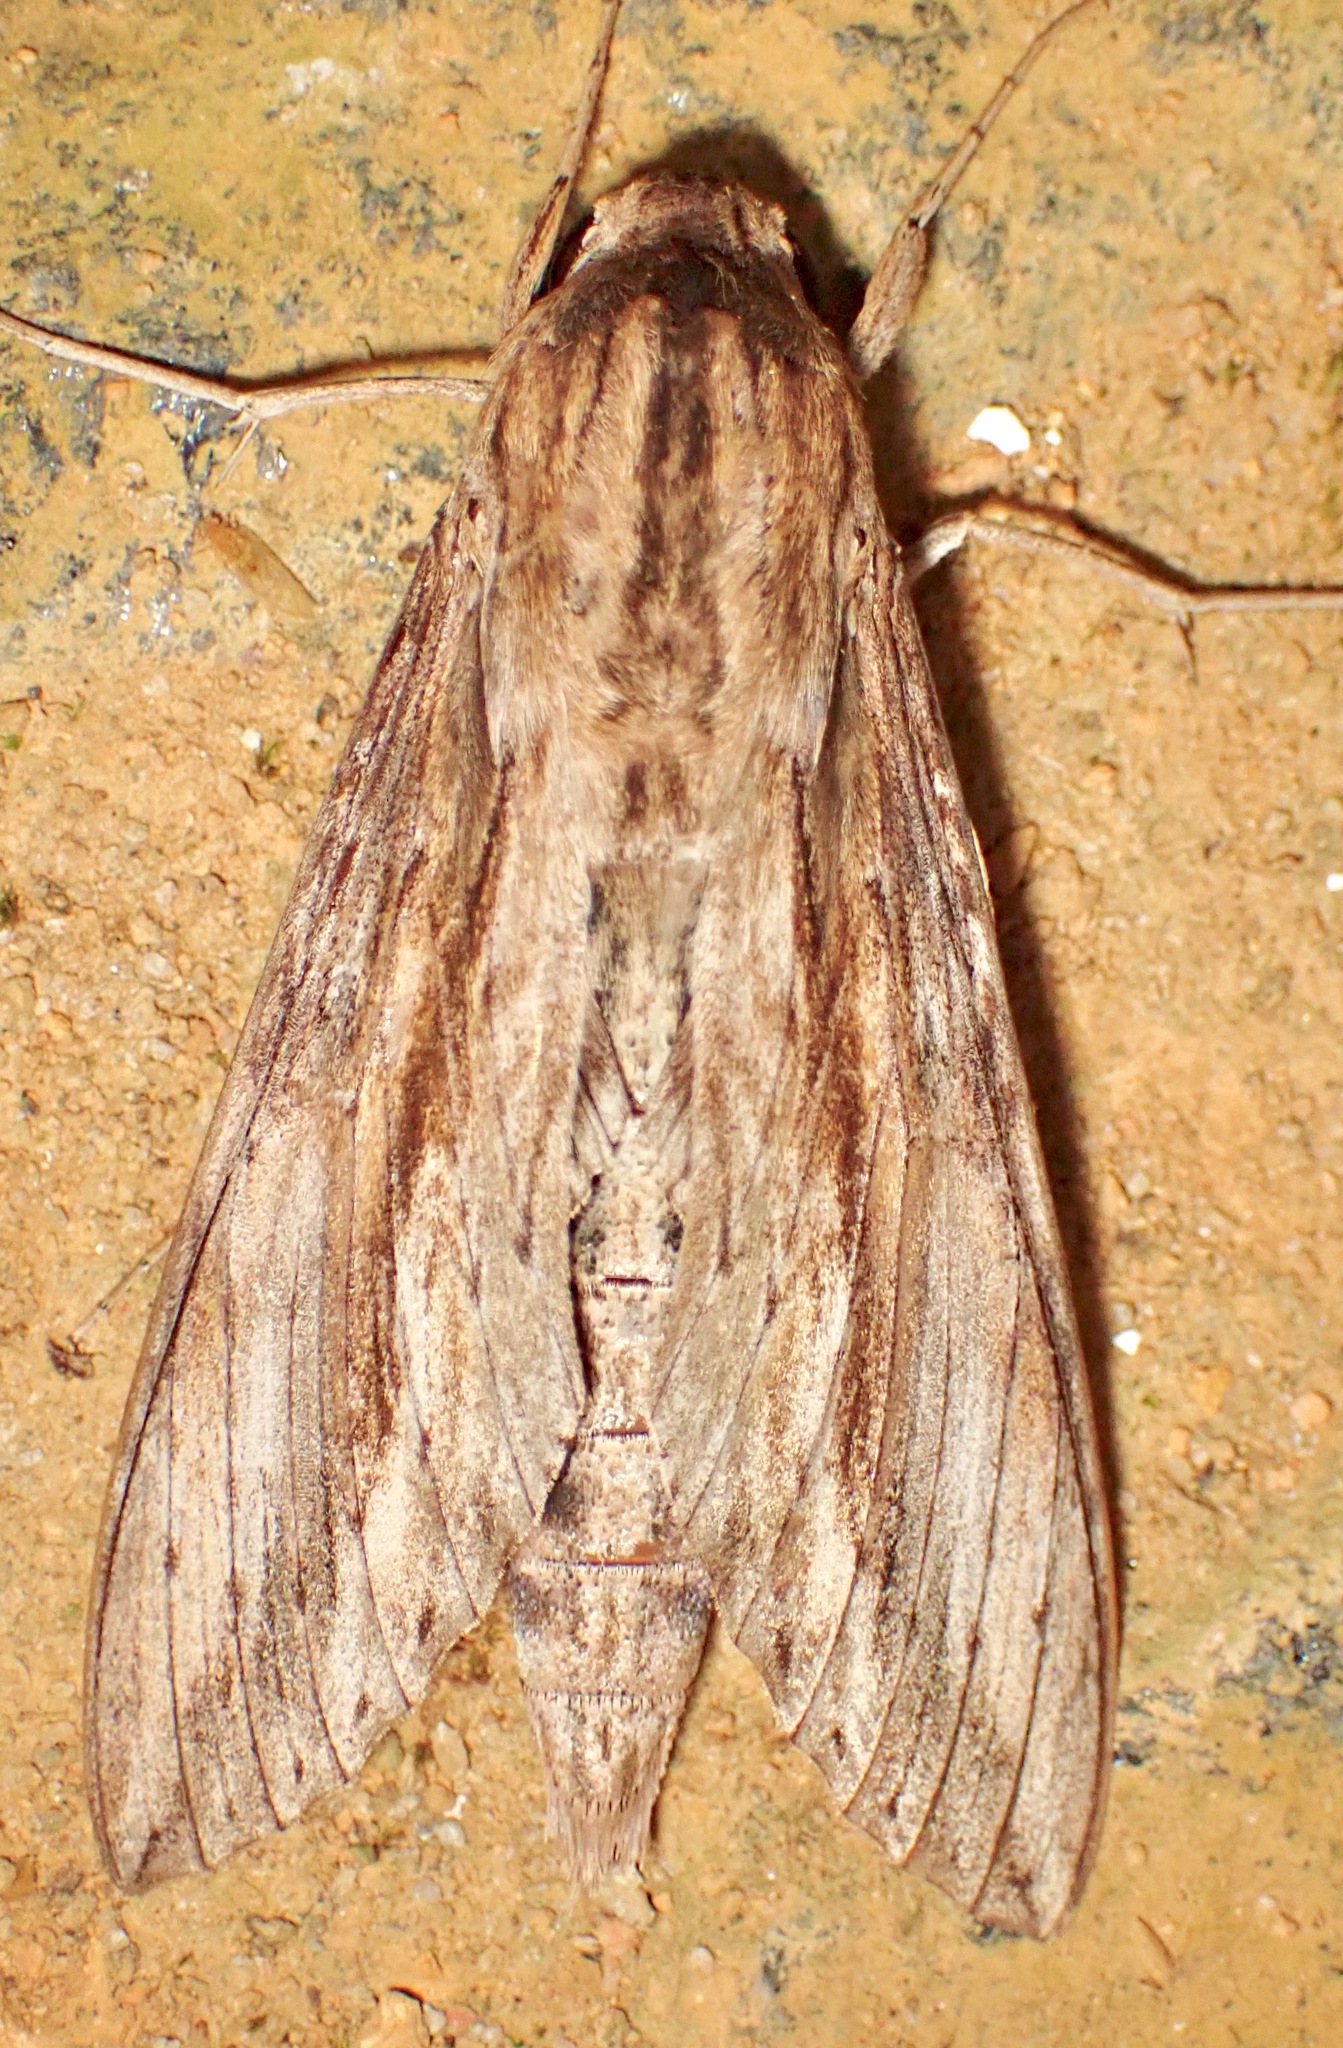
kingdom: Animalia
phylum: Arthropoda
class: Insecta
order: Lepidoptera
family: Sphingidae
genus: Erinnyis
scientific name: Erinnyis ello
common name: Ello sphinx
